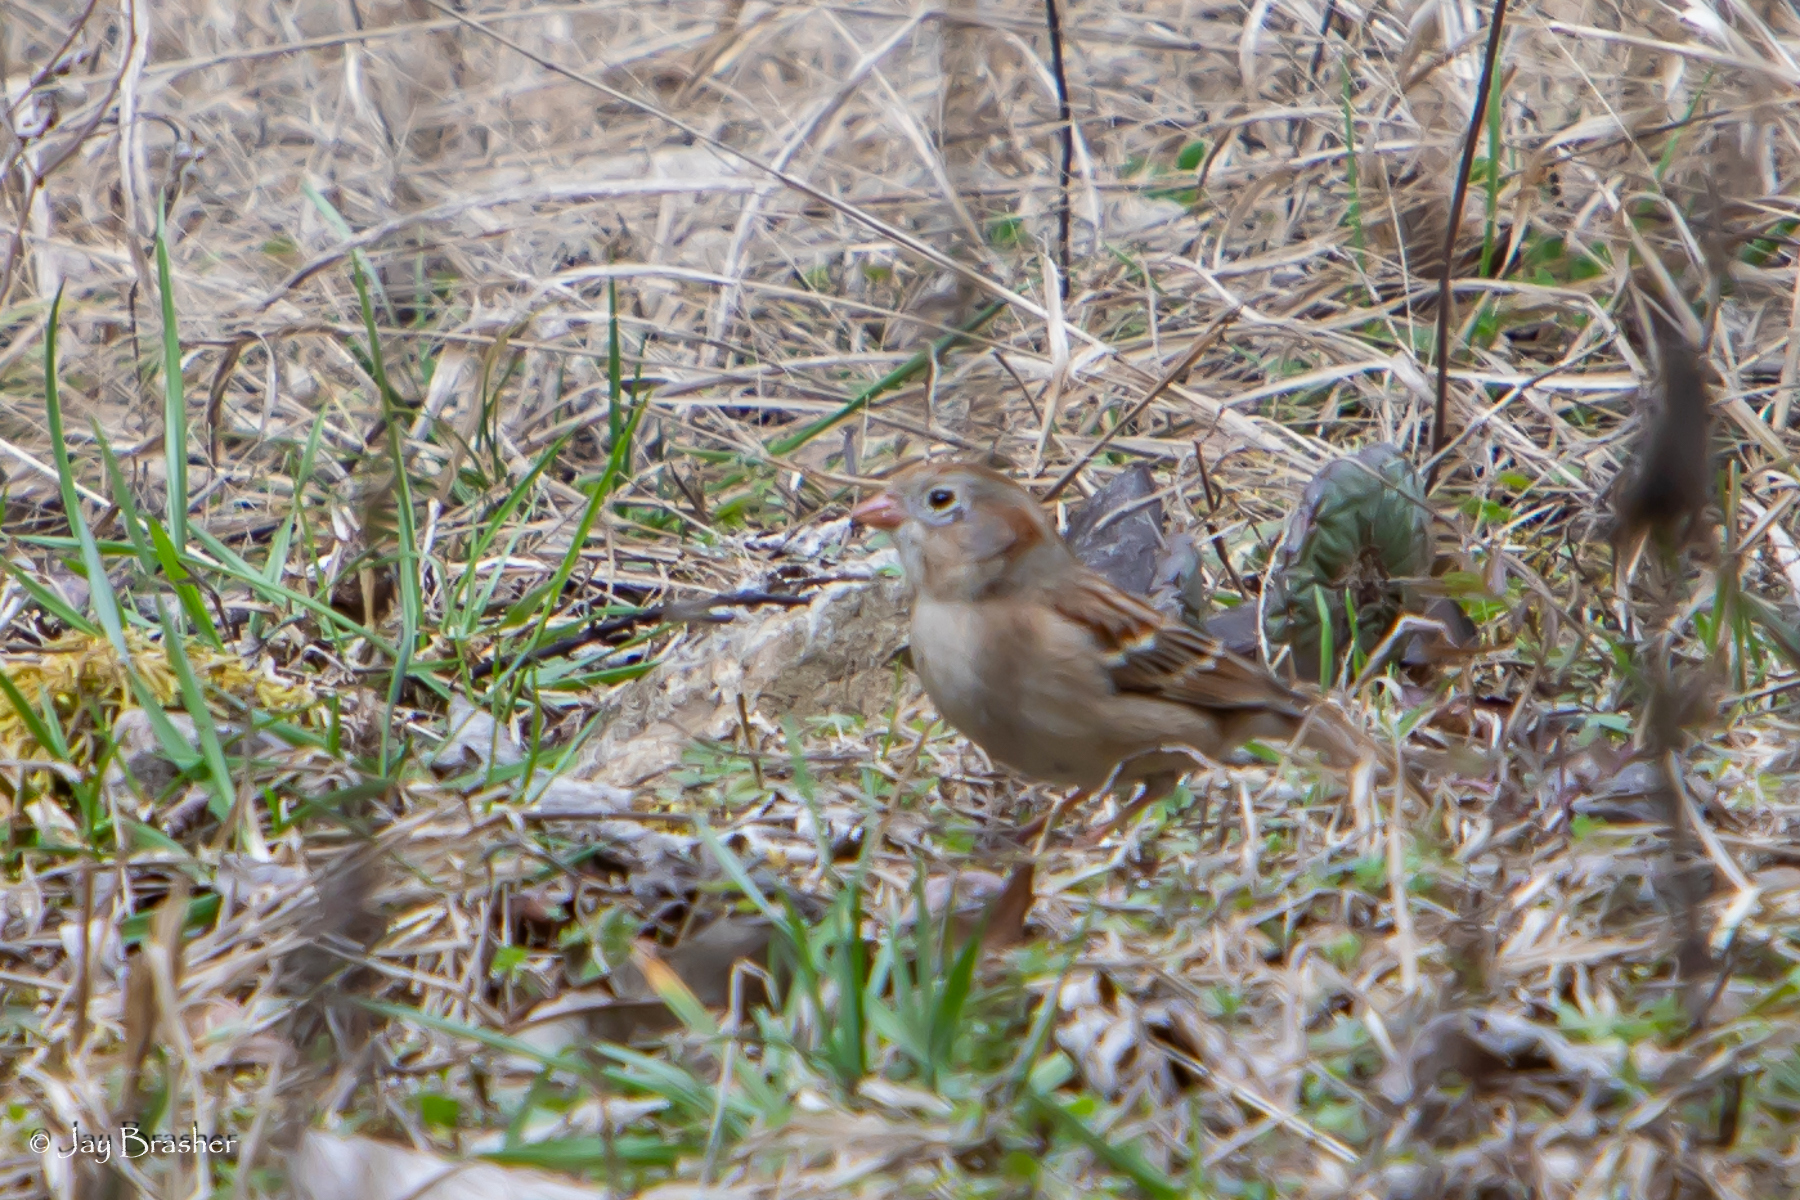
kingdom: Animalia
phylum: Chordata
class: Aves
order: Passeriformes
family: Passerellidae
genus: Spizella
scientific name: Spizella pusilla
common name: Field sparrow
